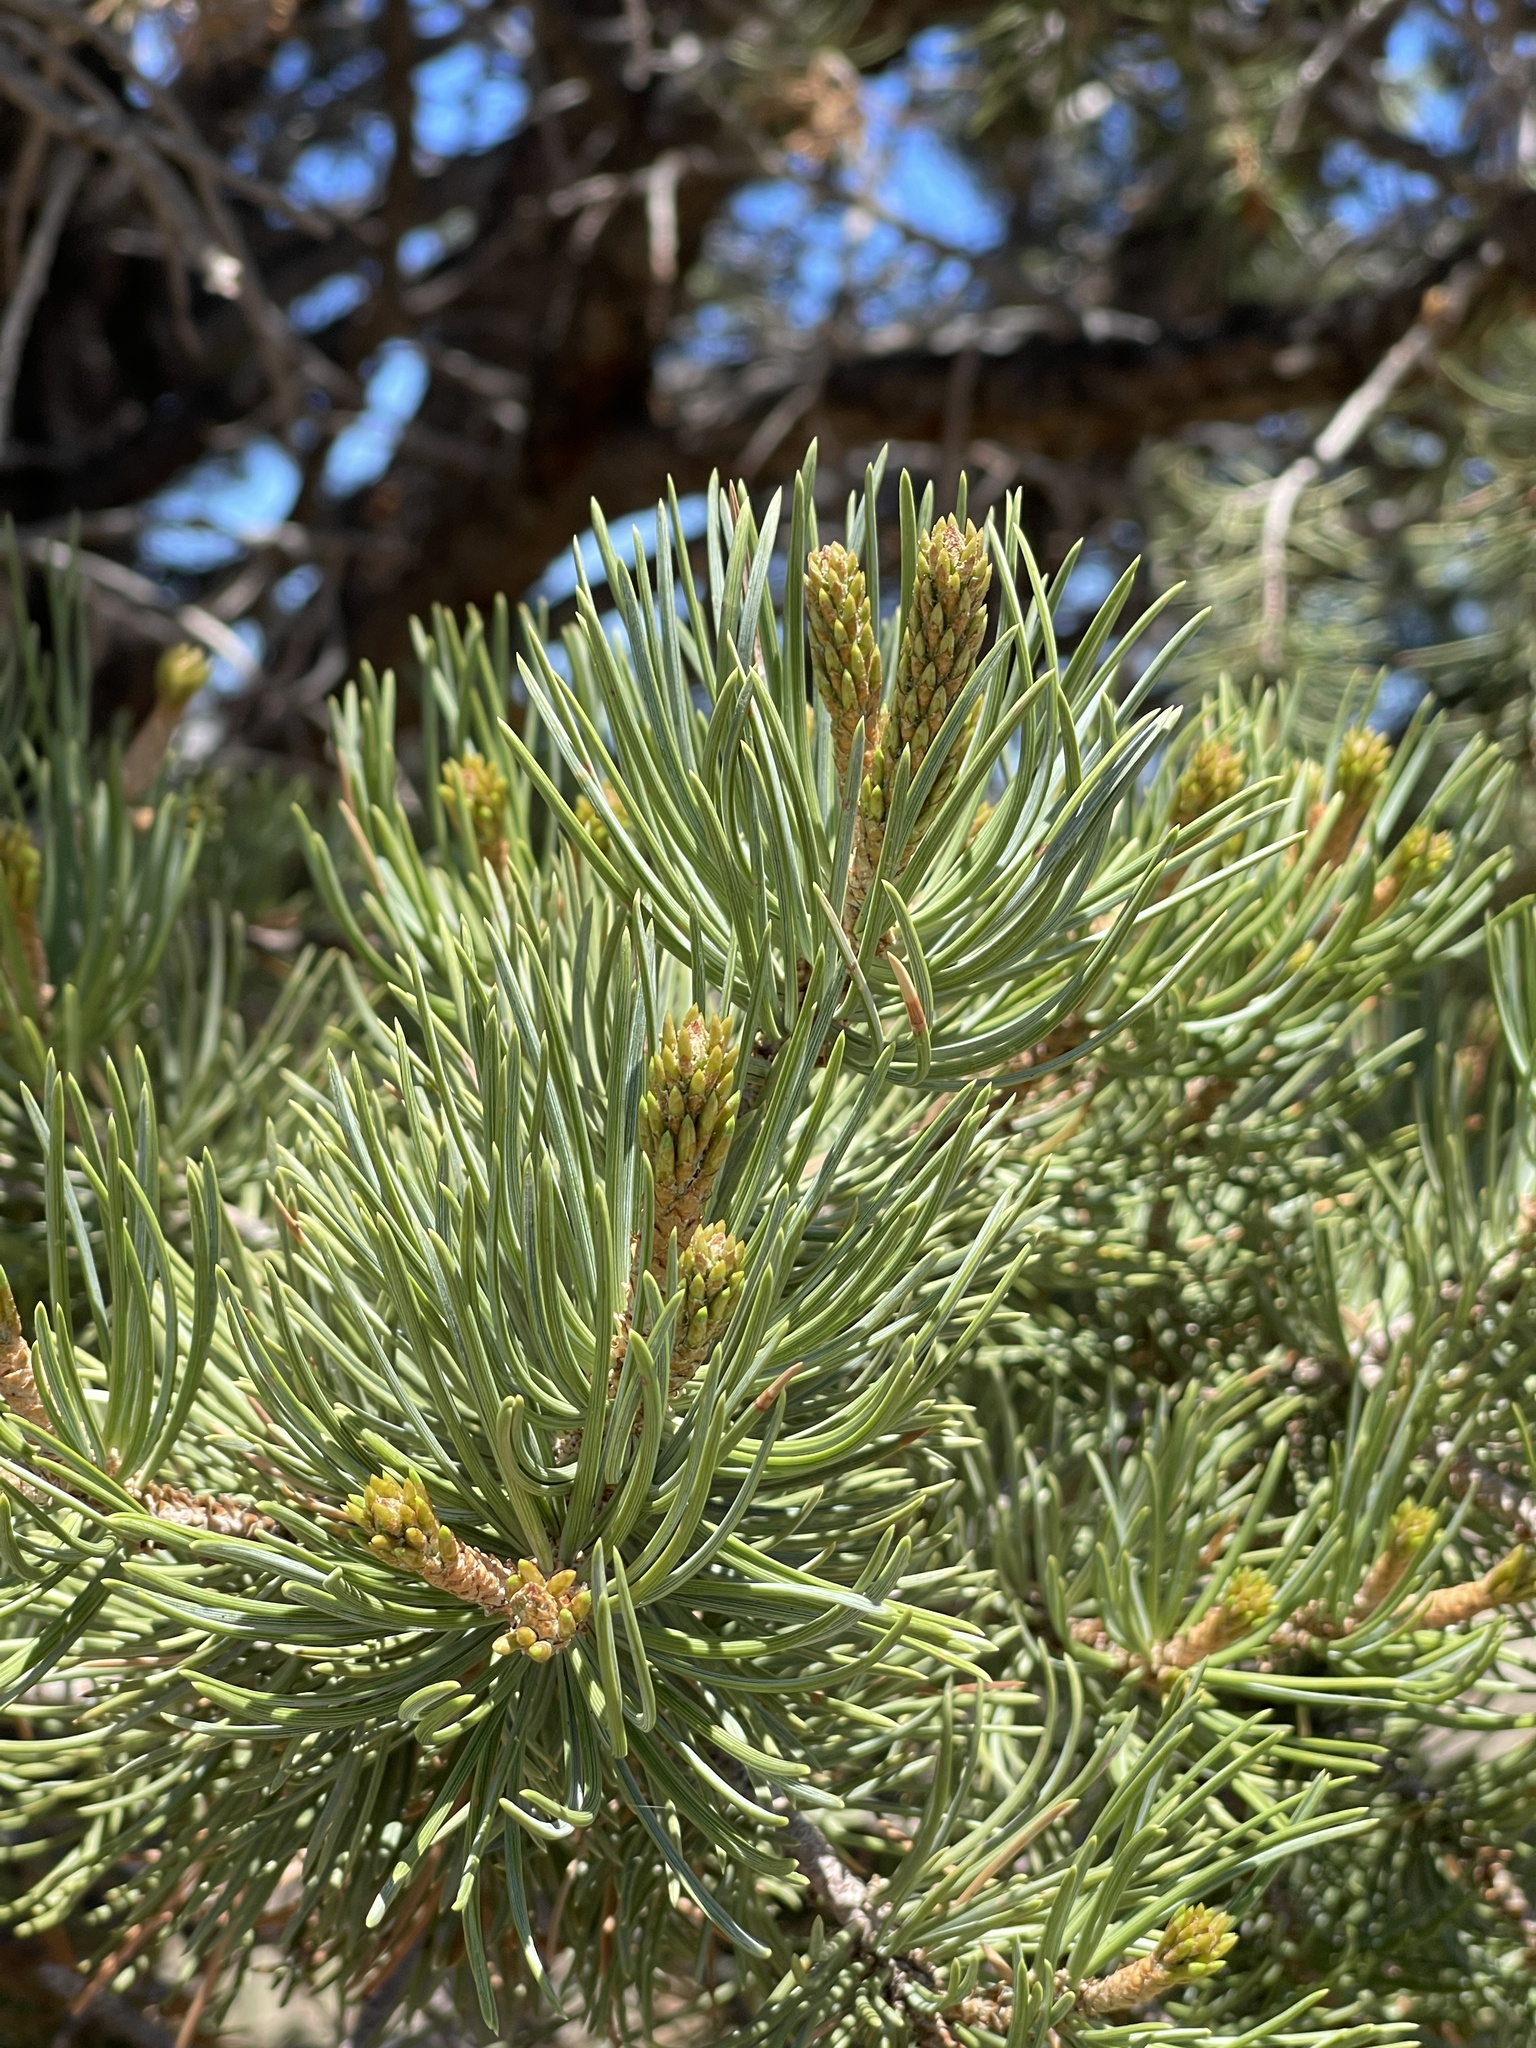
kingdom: Plantae
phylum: Tracheophyta
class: Pinopsida
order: Pinales
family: Pinaceae
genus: Pinus
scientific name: Pinus edulis
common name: Colorado pinyon
